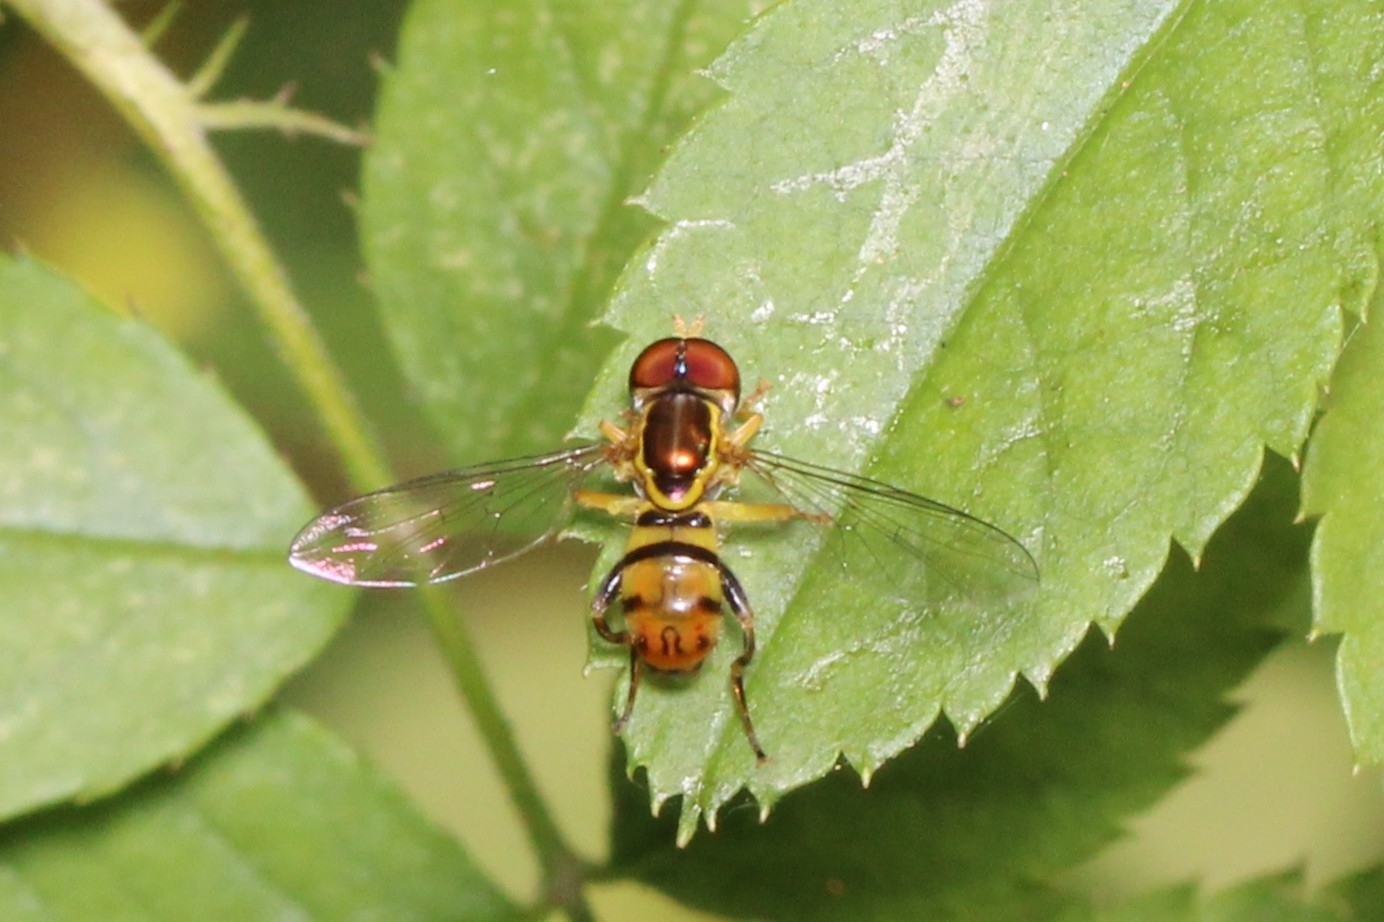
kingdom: Animalia
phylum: Arthropoda
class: Insecta
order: Diptera
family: Syrphidae
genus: Toxomerus
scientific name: Toxomerus geminatus
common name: Eastern calligrapher
